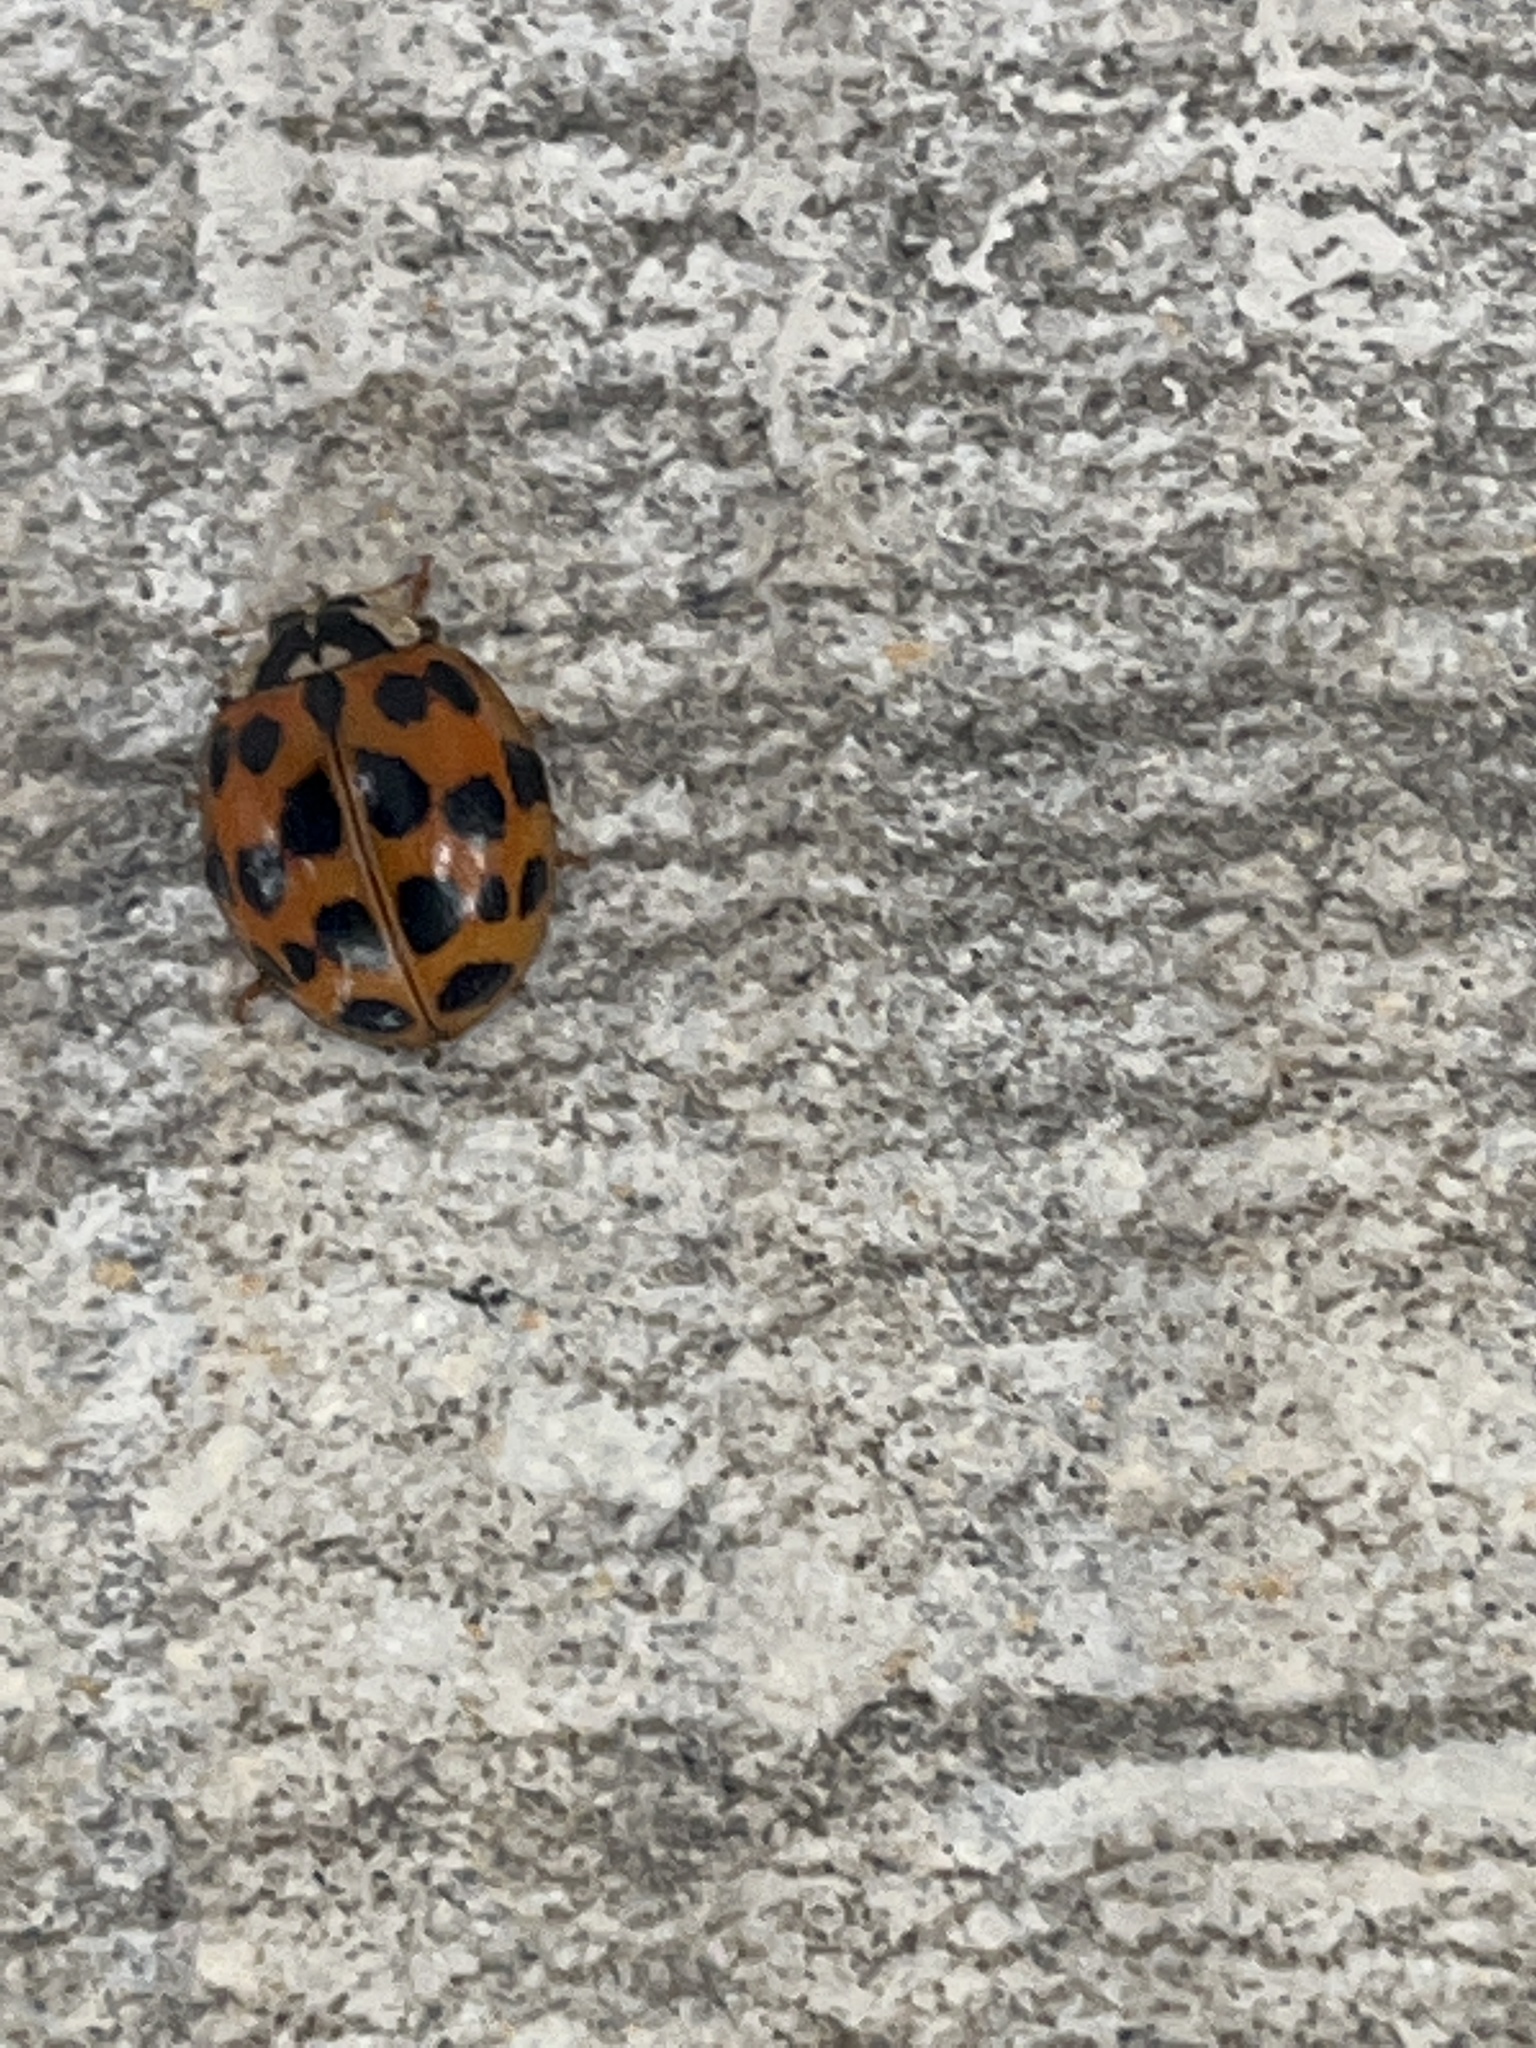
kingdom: Animalia
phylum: Arthropoda
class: Insecta
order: Coleoptera
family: Coccinellidae
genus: Harmonia
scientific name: Harmonia axyridis
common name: Harlequin ladybird
